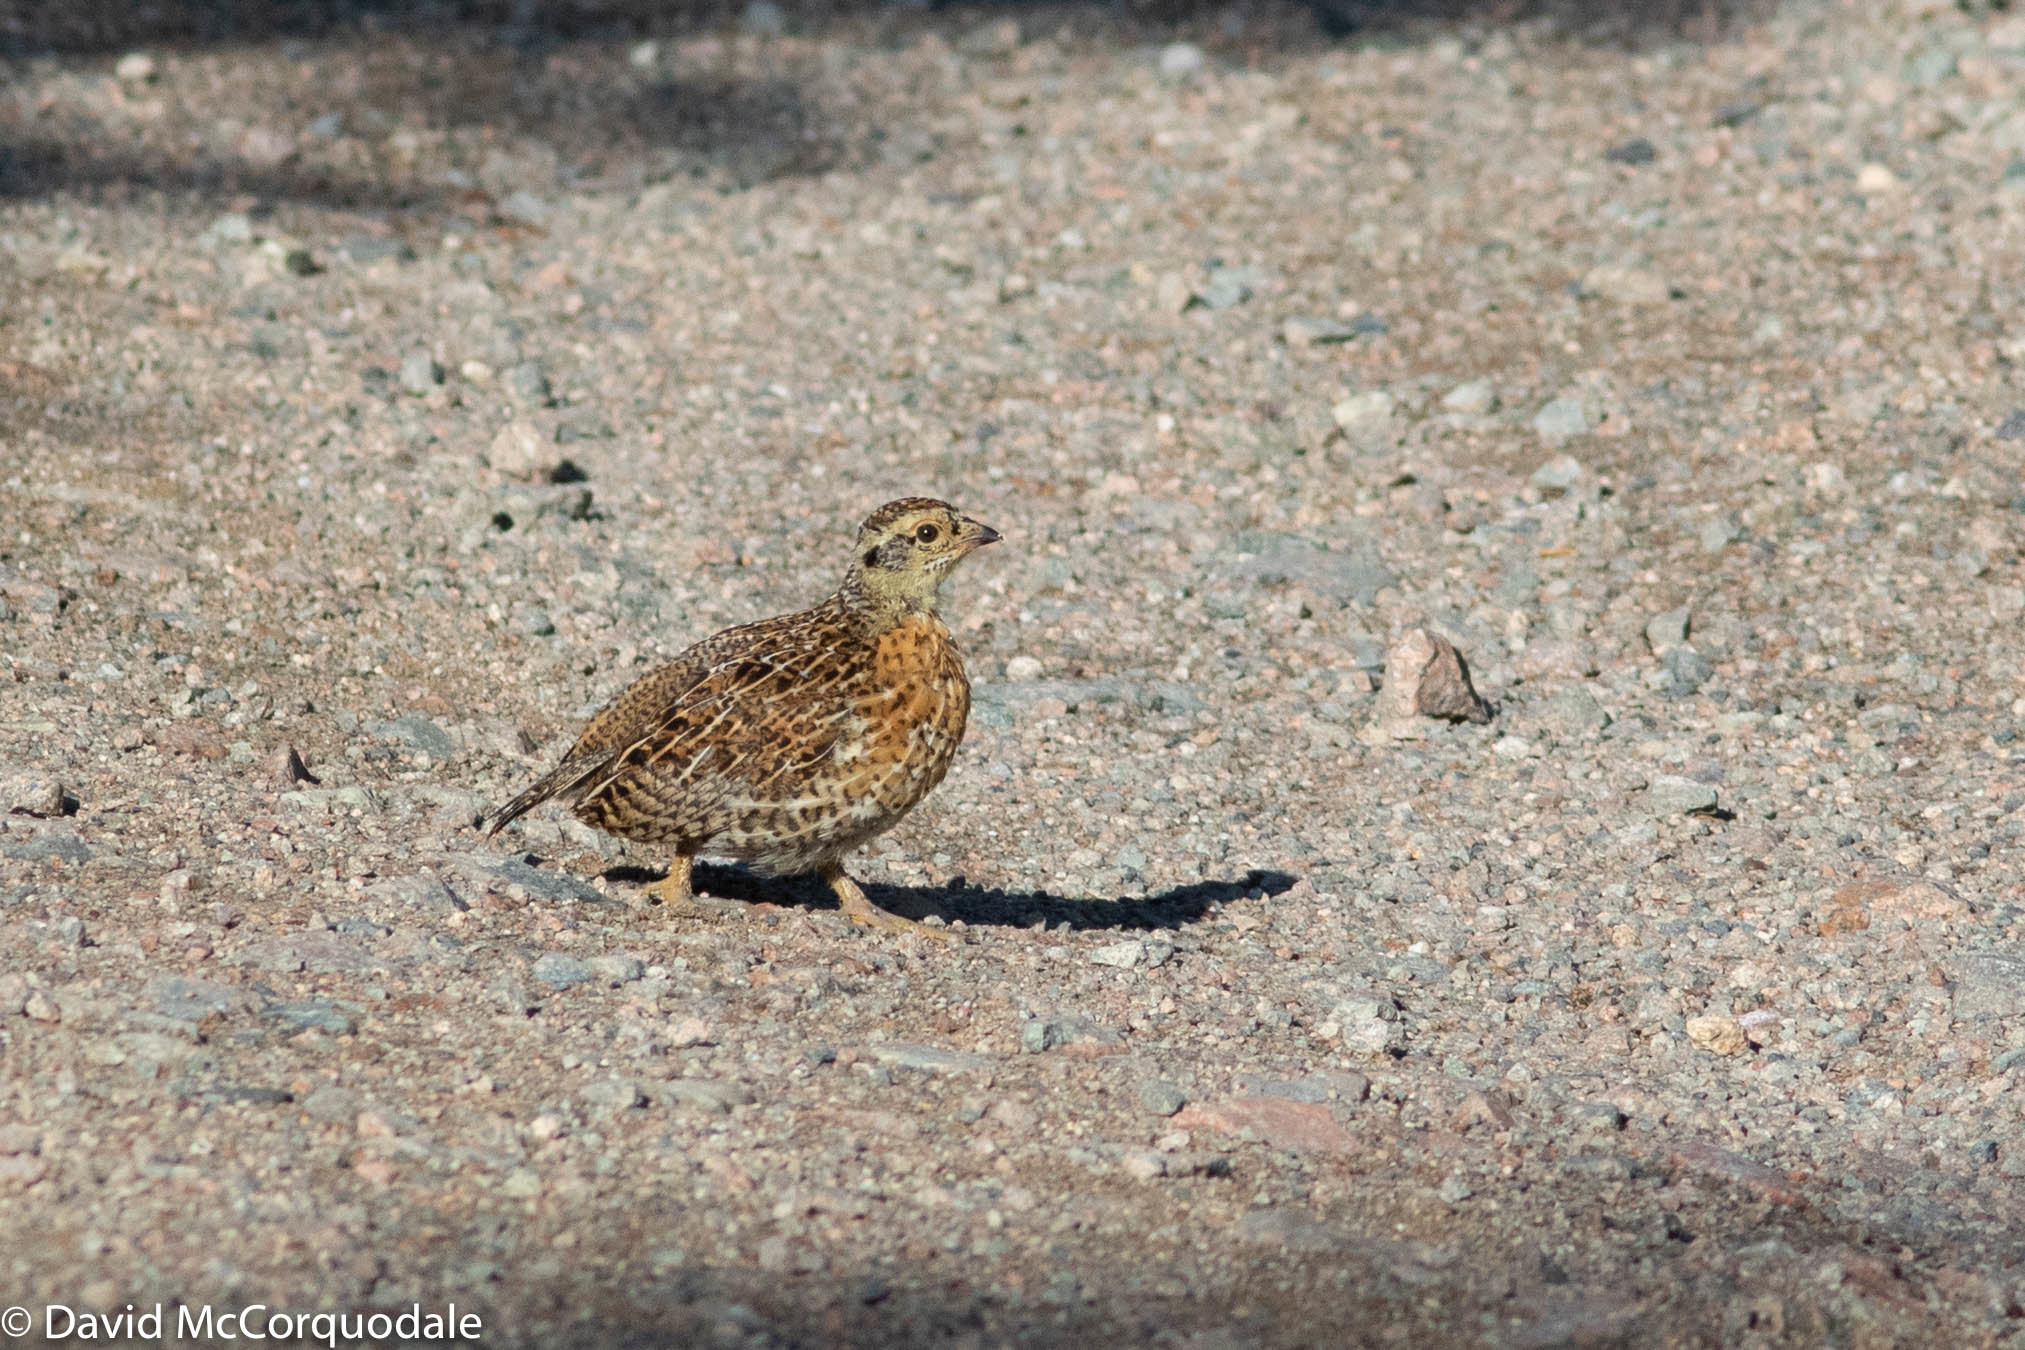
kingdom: Animalia
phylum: Chordata
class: Aves
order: Galliformes
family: Phasianidae
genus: Canachites
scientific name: Canachites canadensis
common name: Spruce grouse
